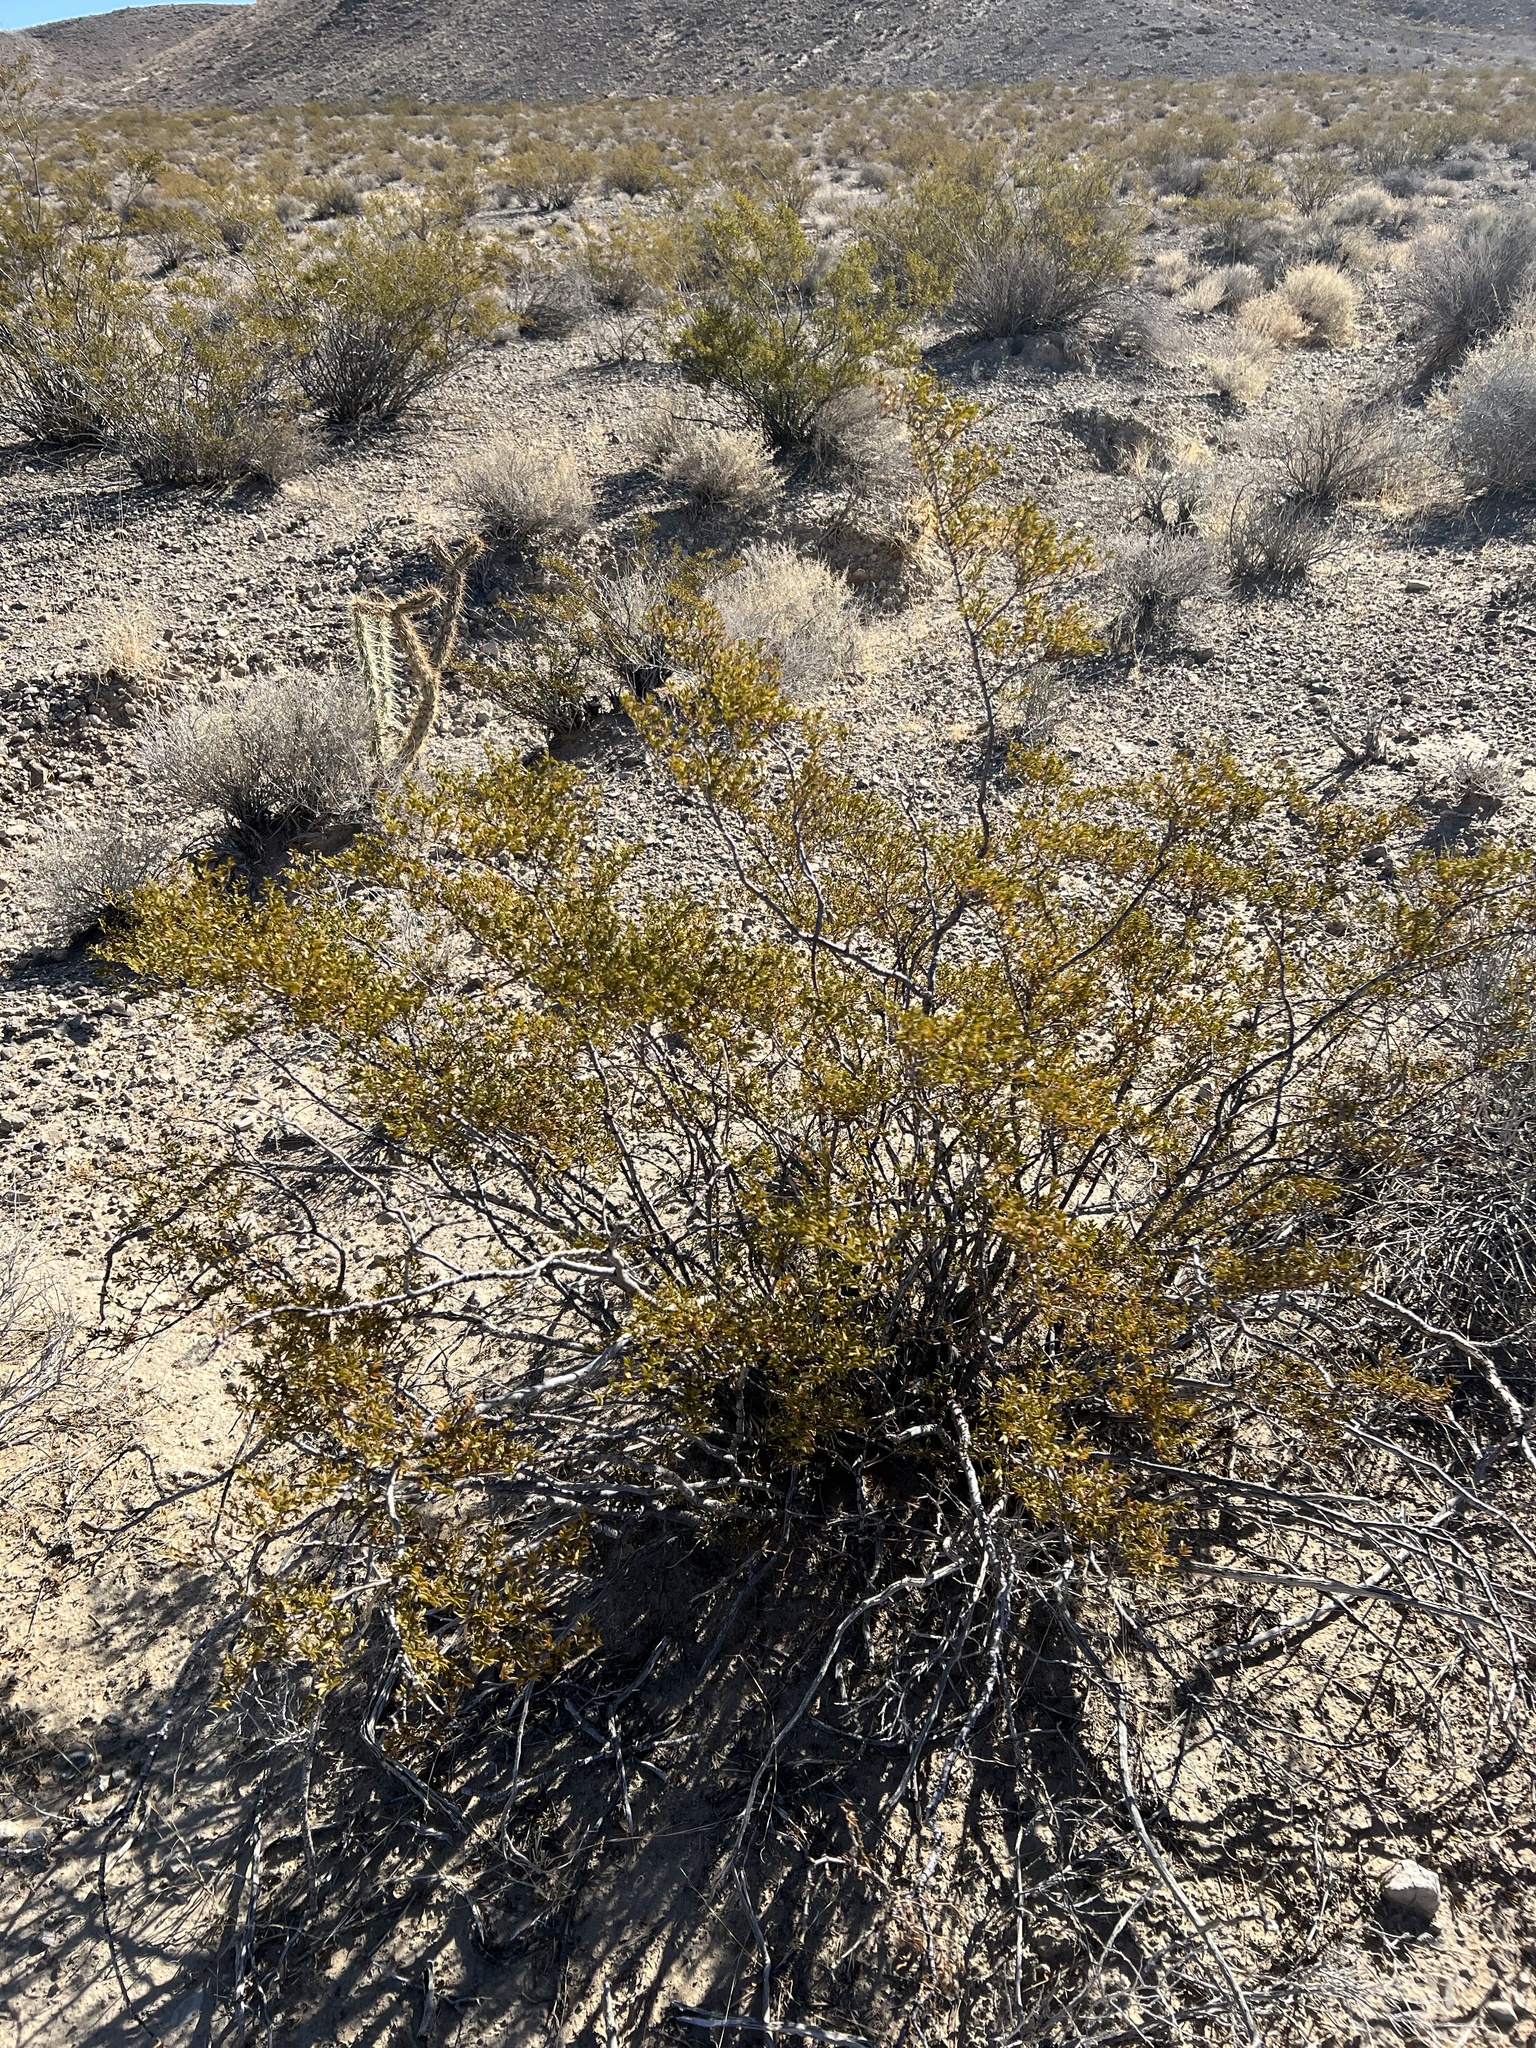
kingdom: Plantae
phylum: Tracheophyta
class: Magnoliopsida
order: Zygophyllales
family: Zygophyllaceae
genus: Larrea
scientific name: Larrea tridentata
